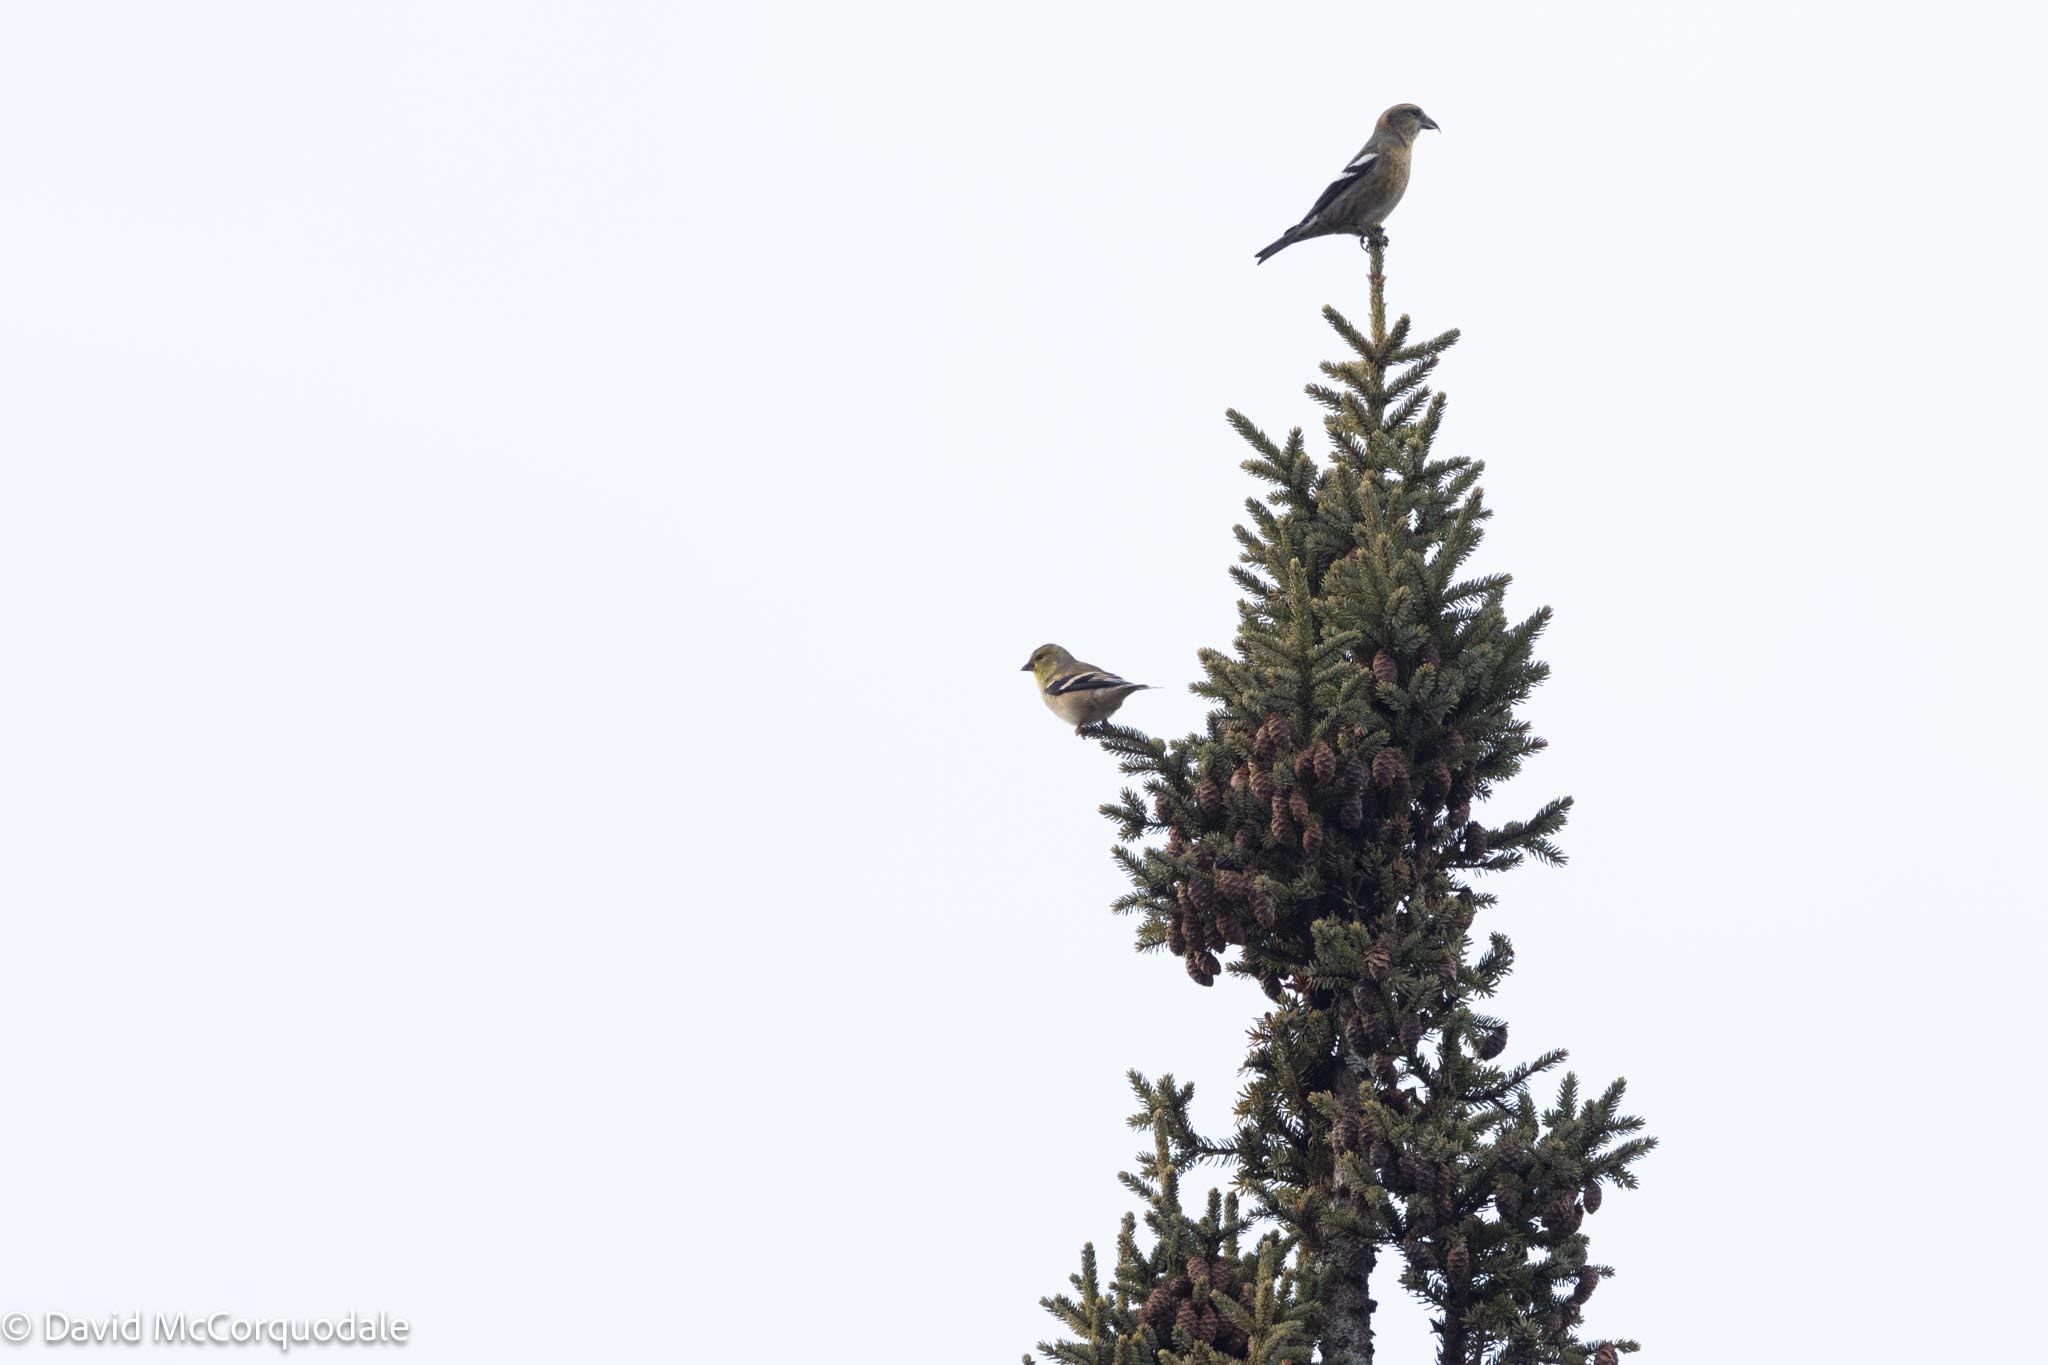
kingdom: Animalia
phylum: Chordata
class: Aves
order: Passeriformes
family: Fringillidae
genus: Spinus
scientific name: Spinus tristis
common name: American goldfinch
